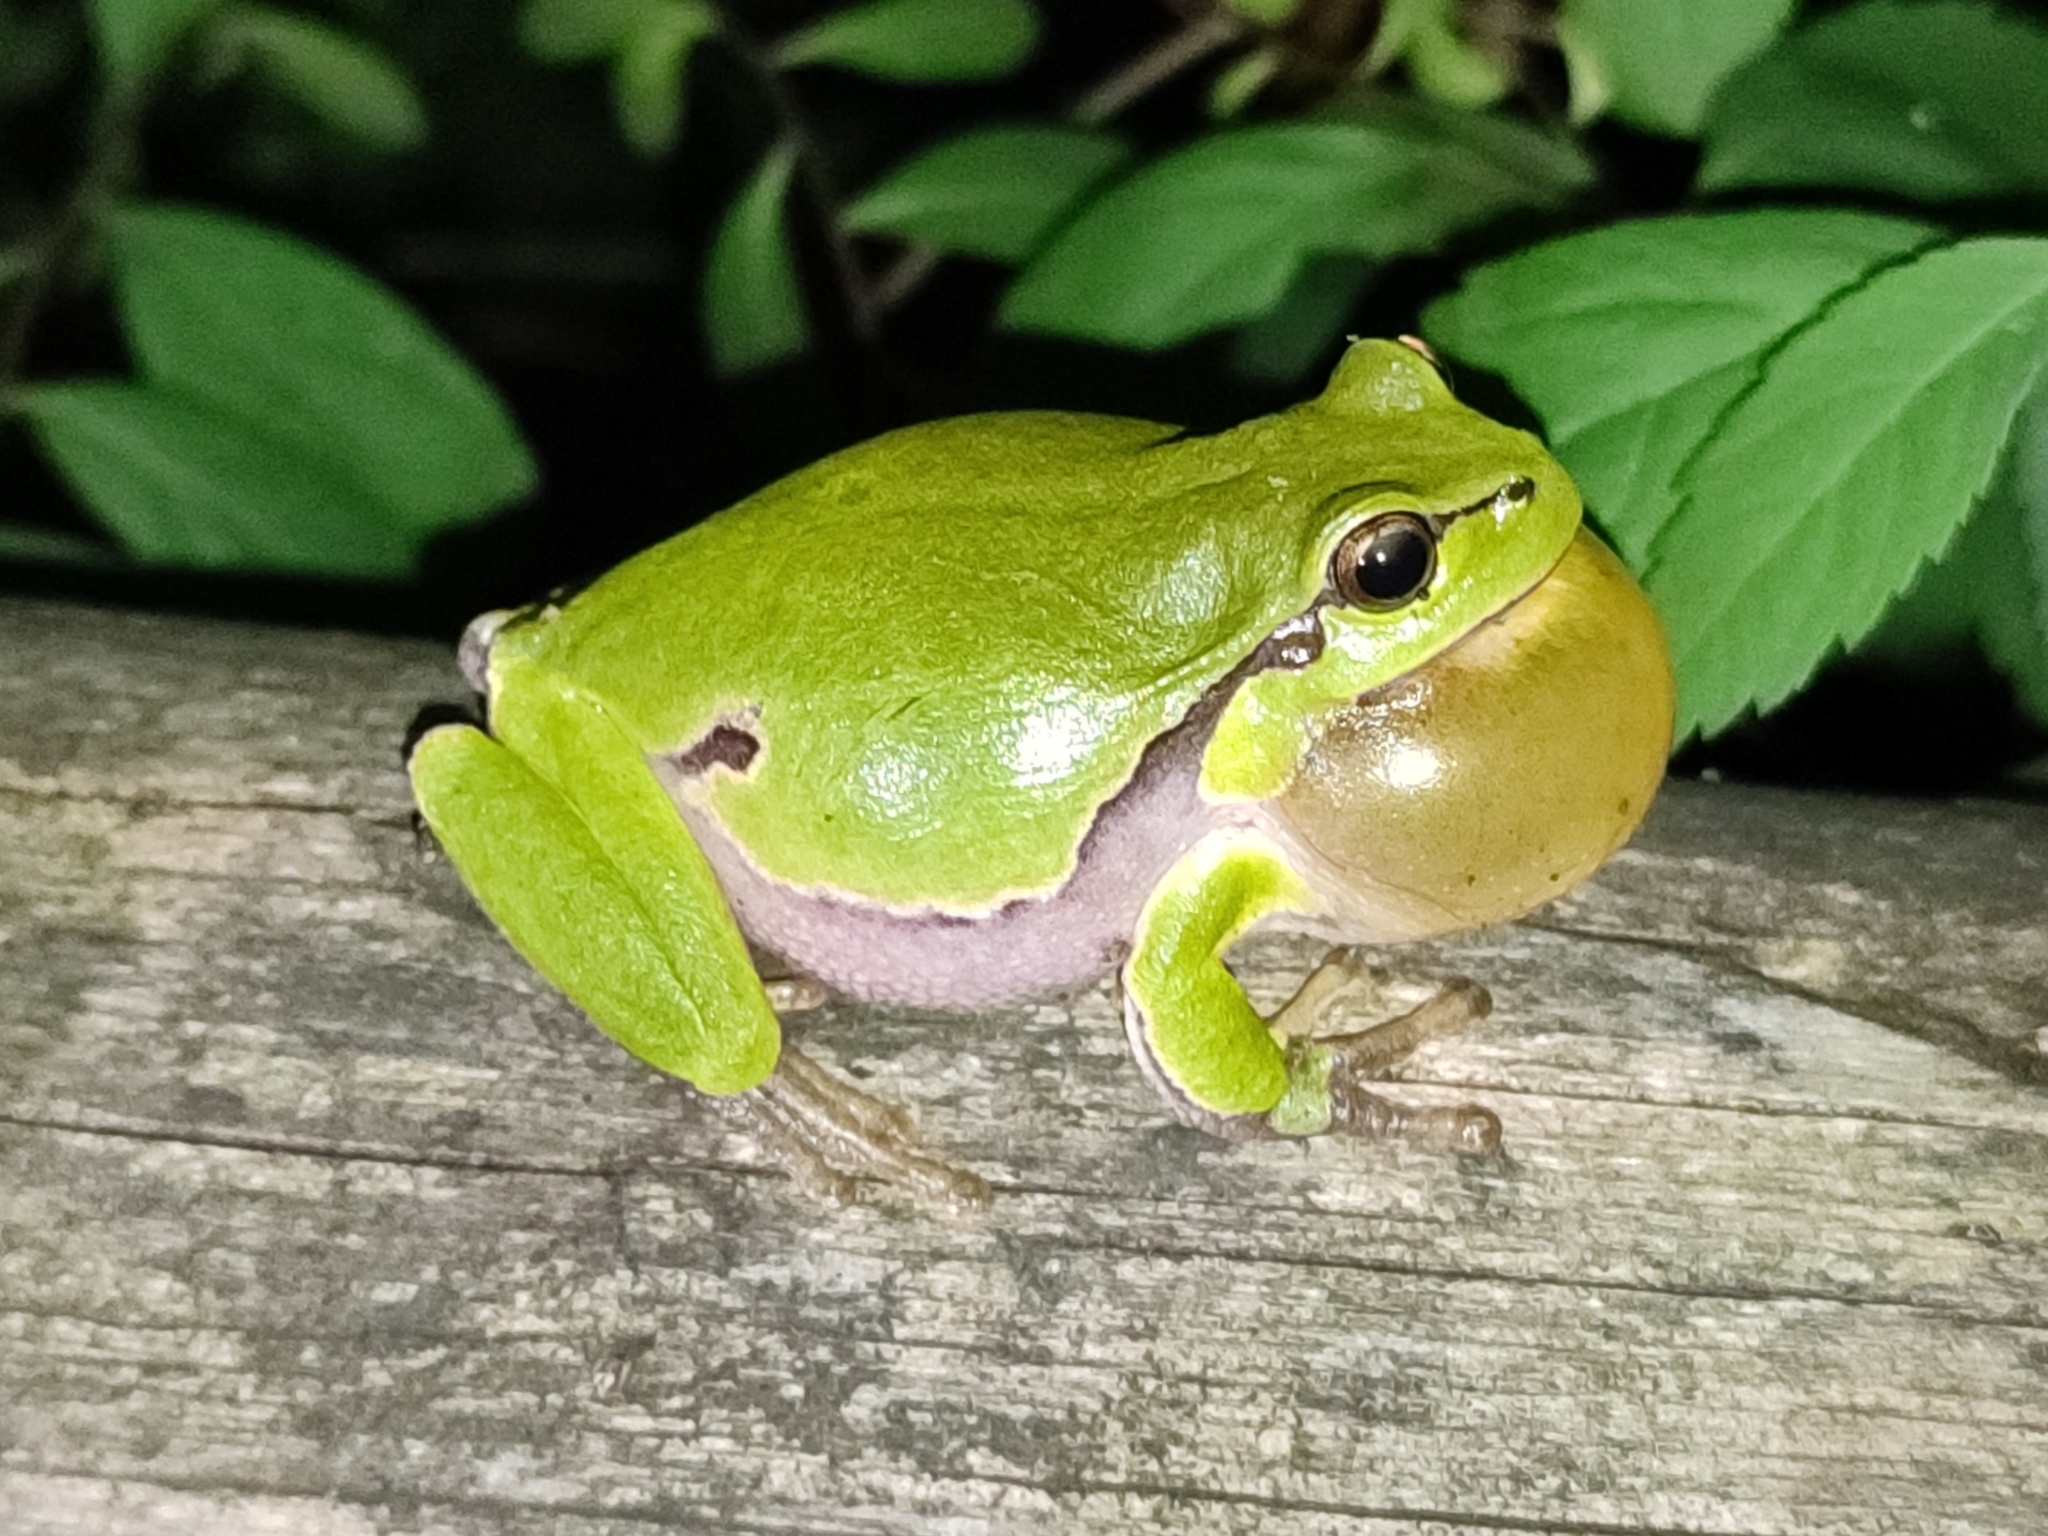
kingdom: Animalia
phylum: Chordata
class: Amphibia
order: Anura
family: Hylidae
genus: Hyla
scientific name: Hyla arborea
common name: Common tree frog
